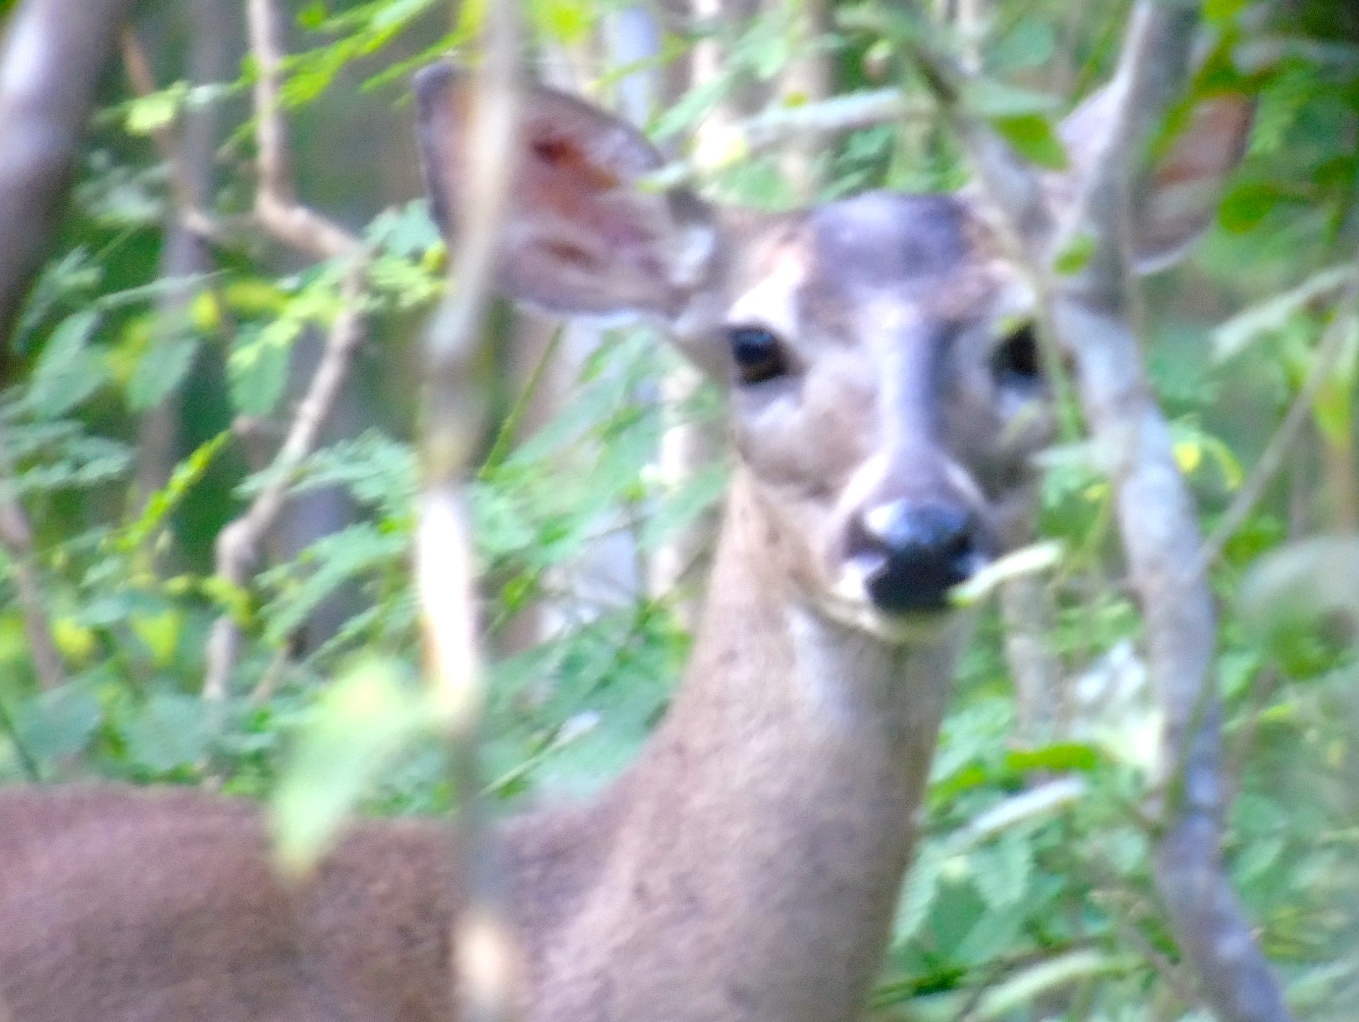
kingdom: Animalia
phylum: Chordata
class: Mammalia
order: Artiodactyla
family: Cervidae
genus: Odocoileus
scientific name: Odocoileus virginianus
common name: White-tailed deer
